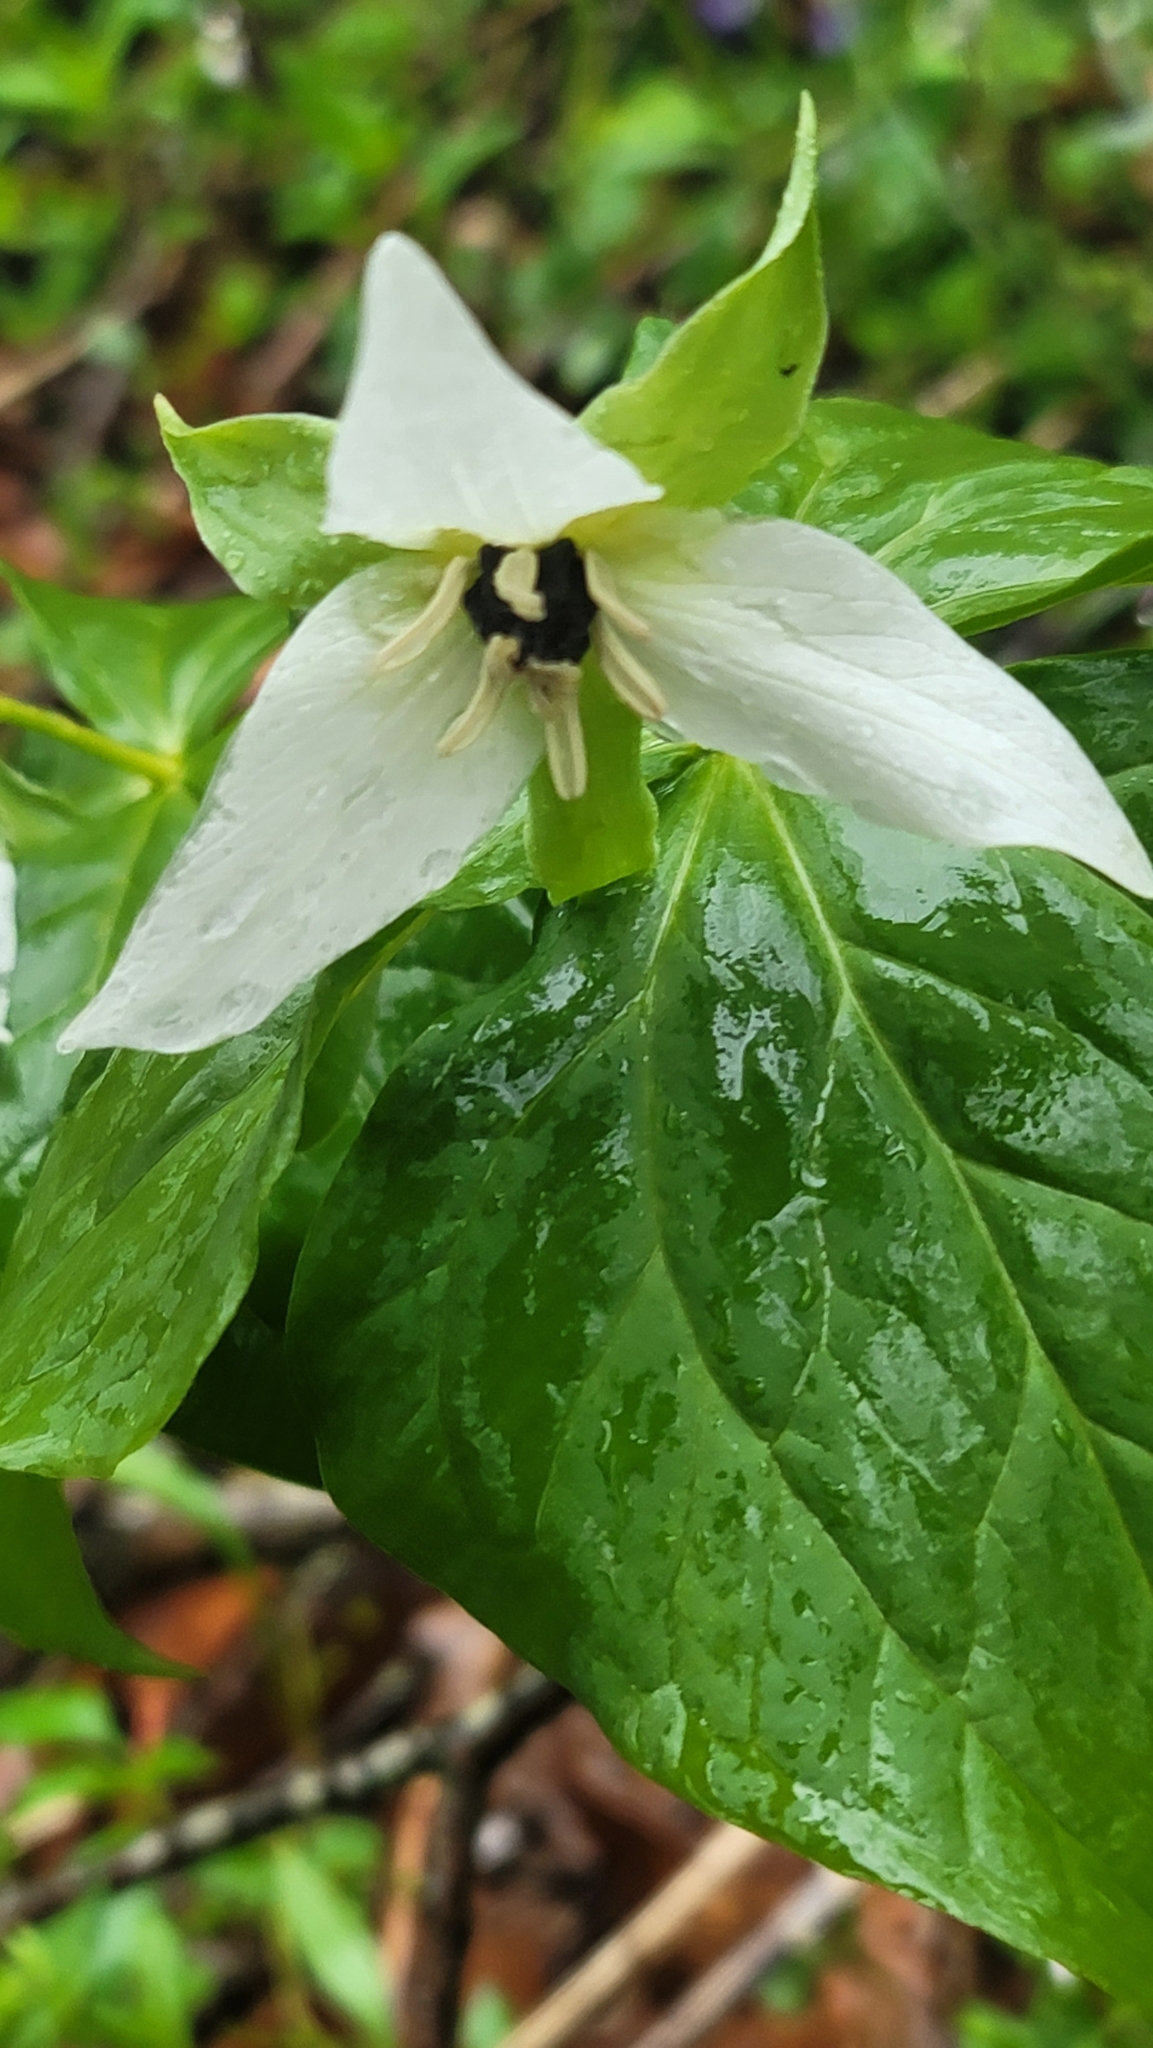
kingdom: Plantae
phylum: Tracheophyta
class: Liliopsida
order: Liliales
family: Melanthiaceae
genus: Trillium
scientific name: Trillium erectum
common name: Purple trillium
